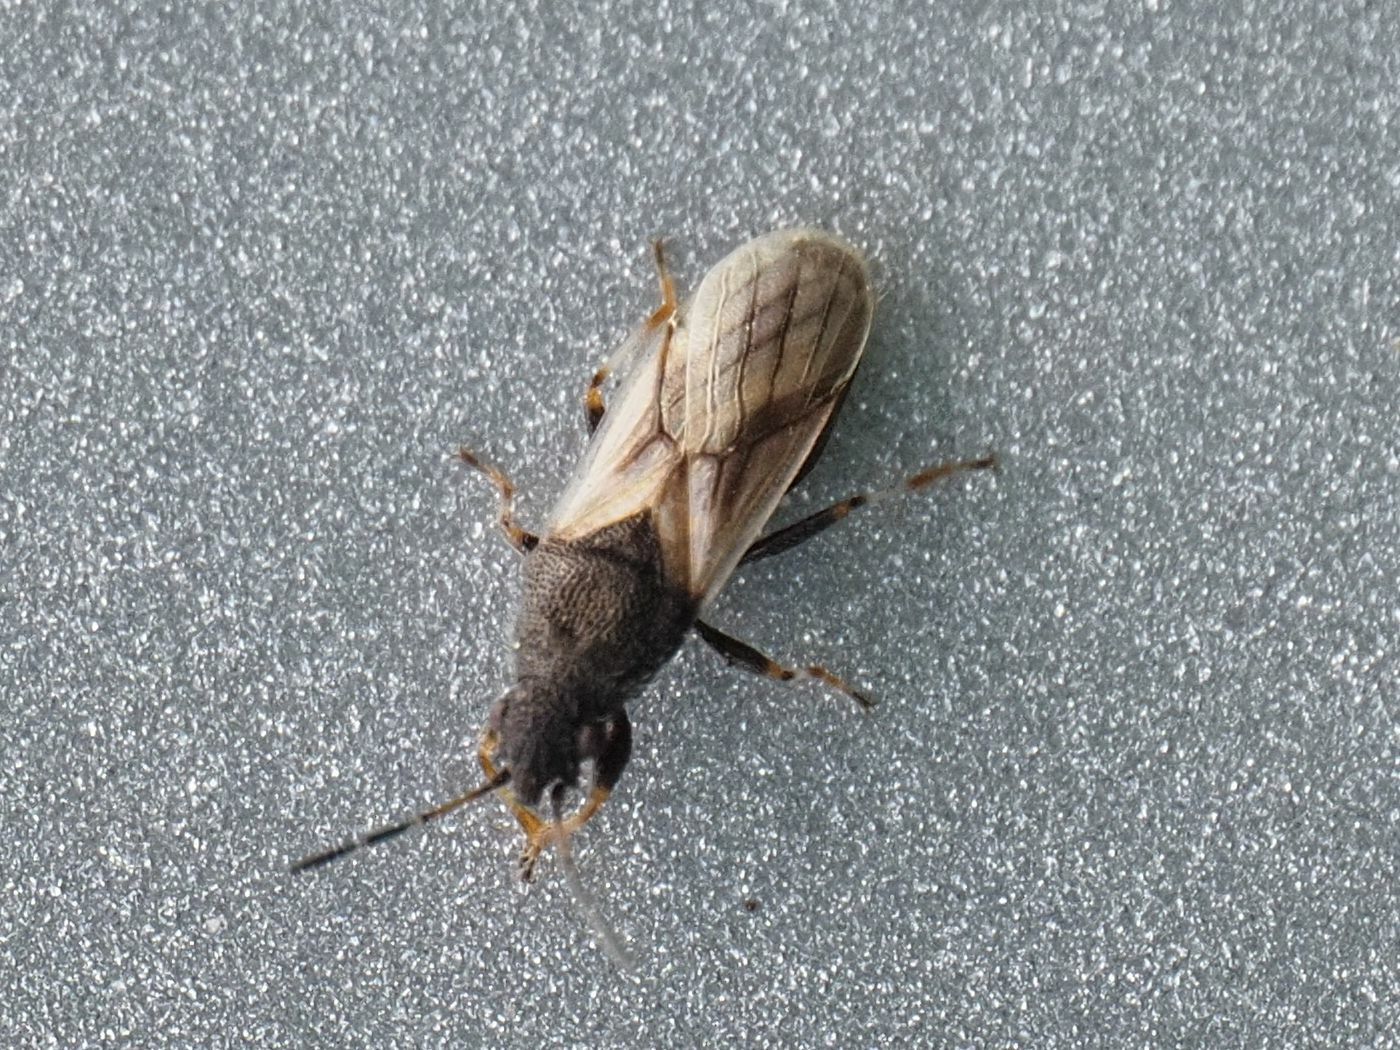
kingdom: Animalia
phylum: Arthropoda
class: Insecta
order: Hemiptera
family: Oxycarenidae
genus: Metopoplax
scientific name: Metopoplax origani
